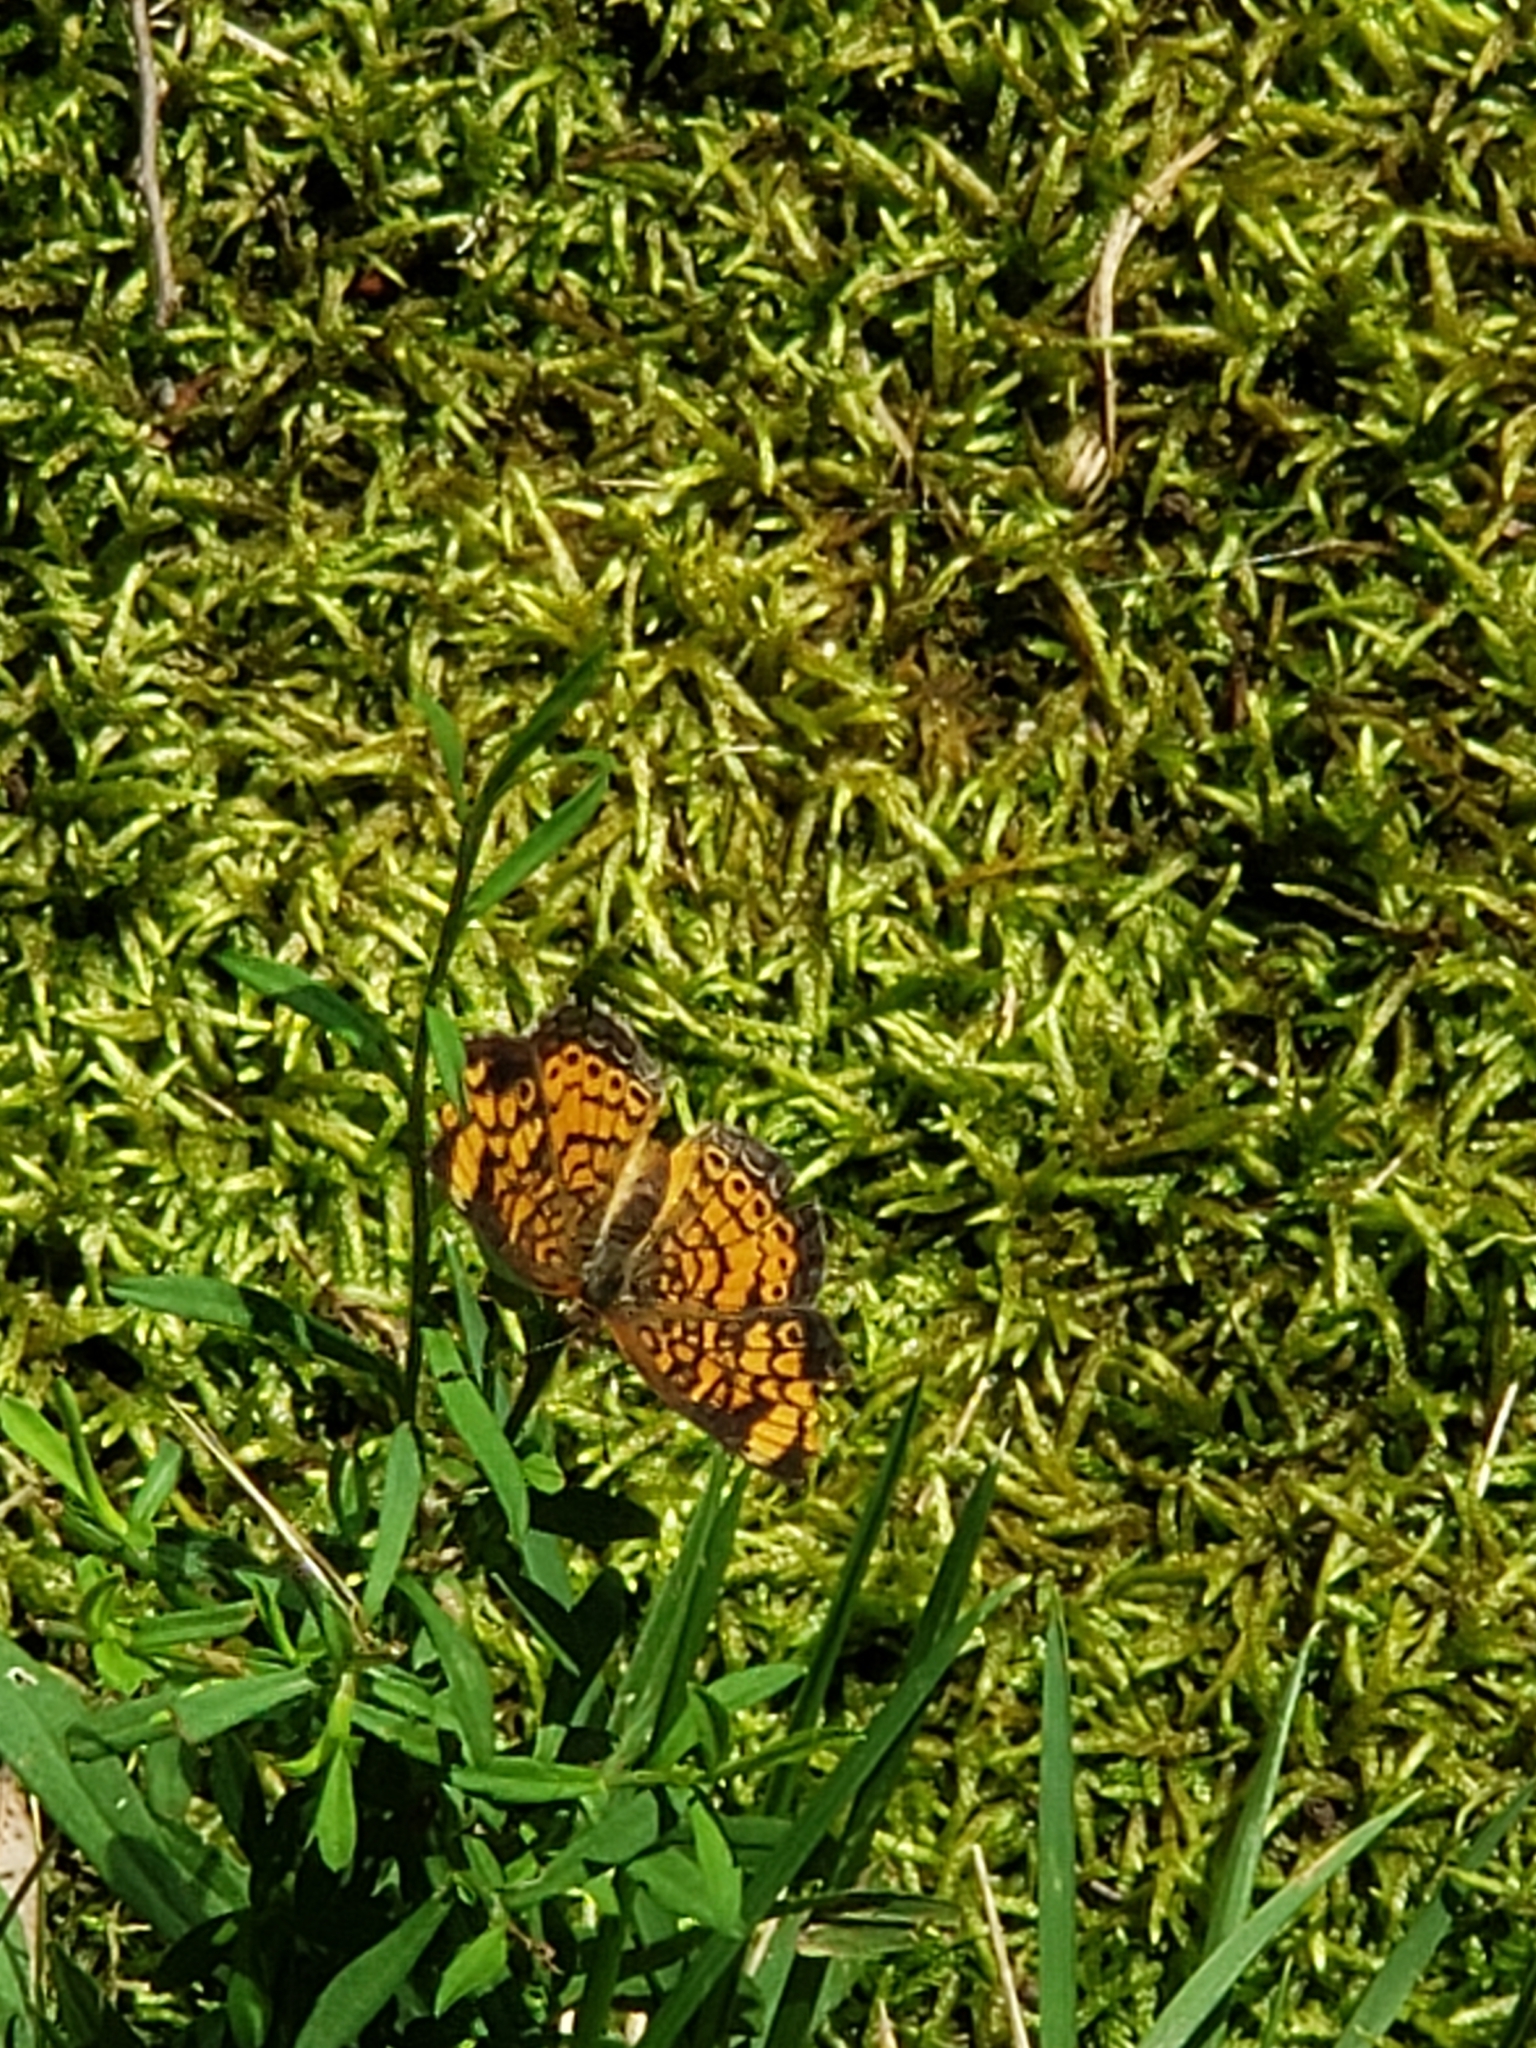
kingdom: Animalia
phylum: Arthropoda
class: Insecta
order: Lepidoptera
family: Nymphalidae
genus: Phyciodes
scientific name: Phyciodes tharos
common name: Pearl crescent
